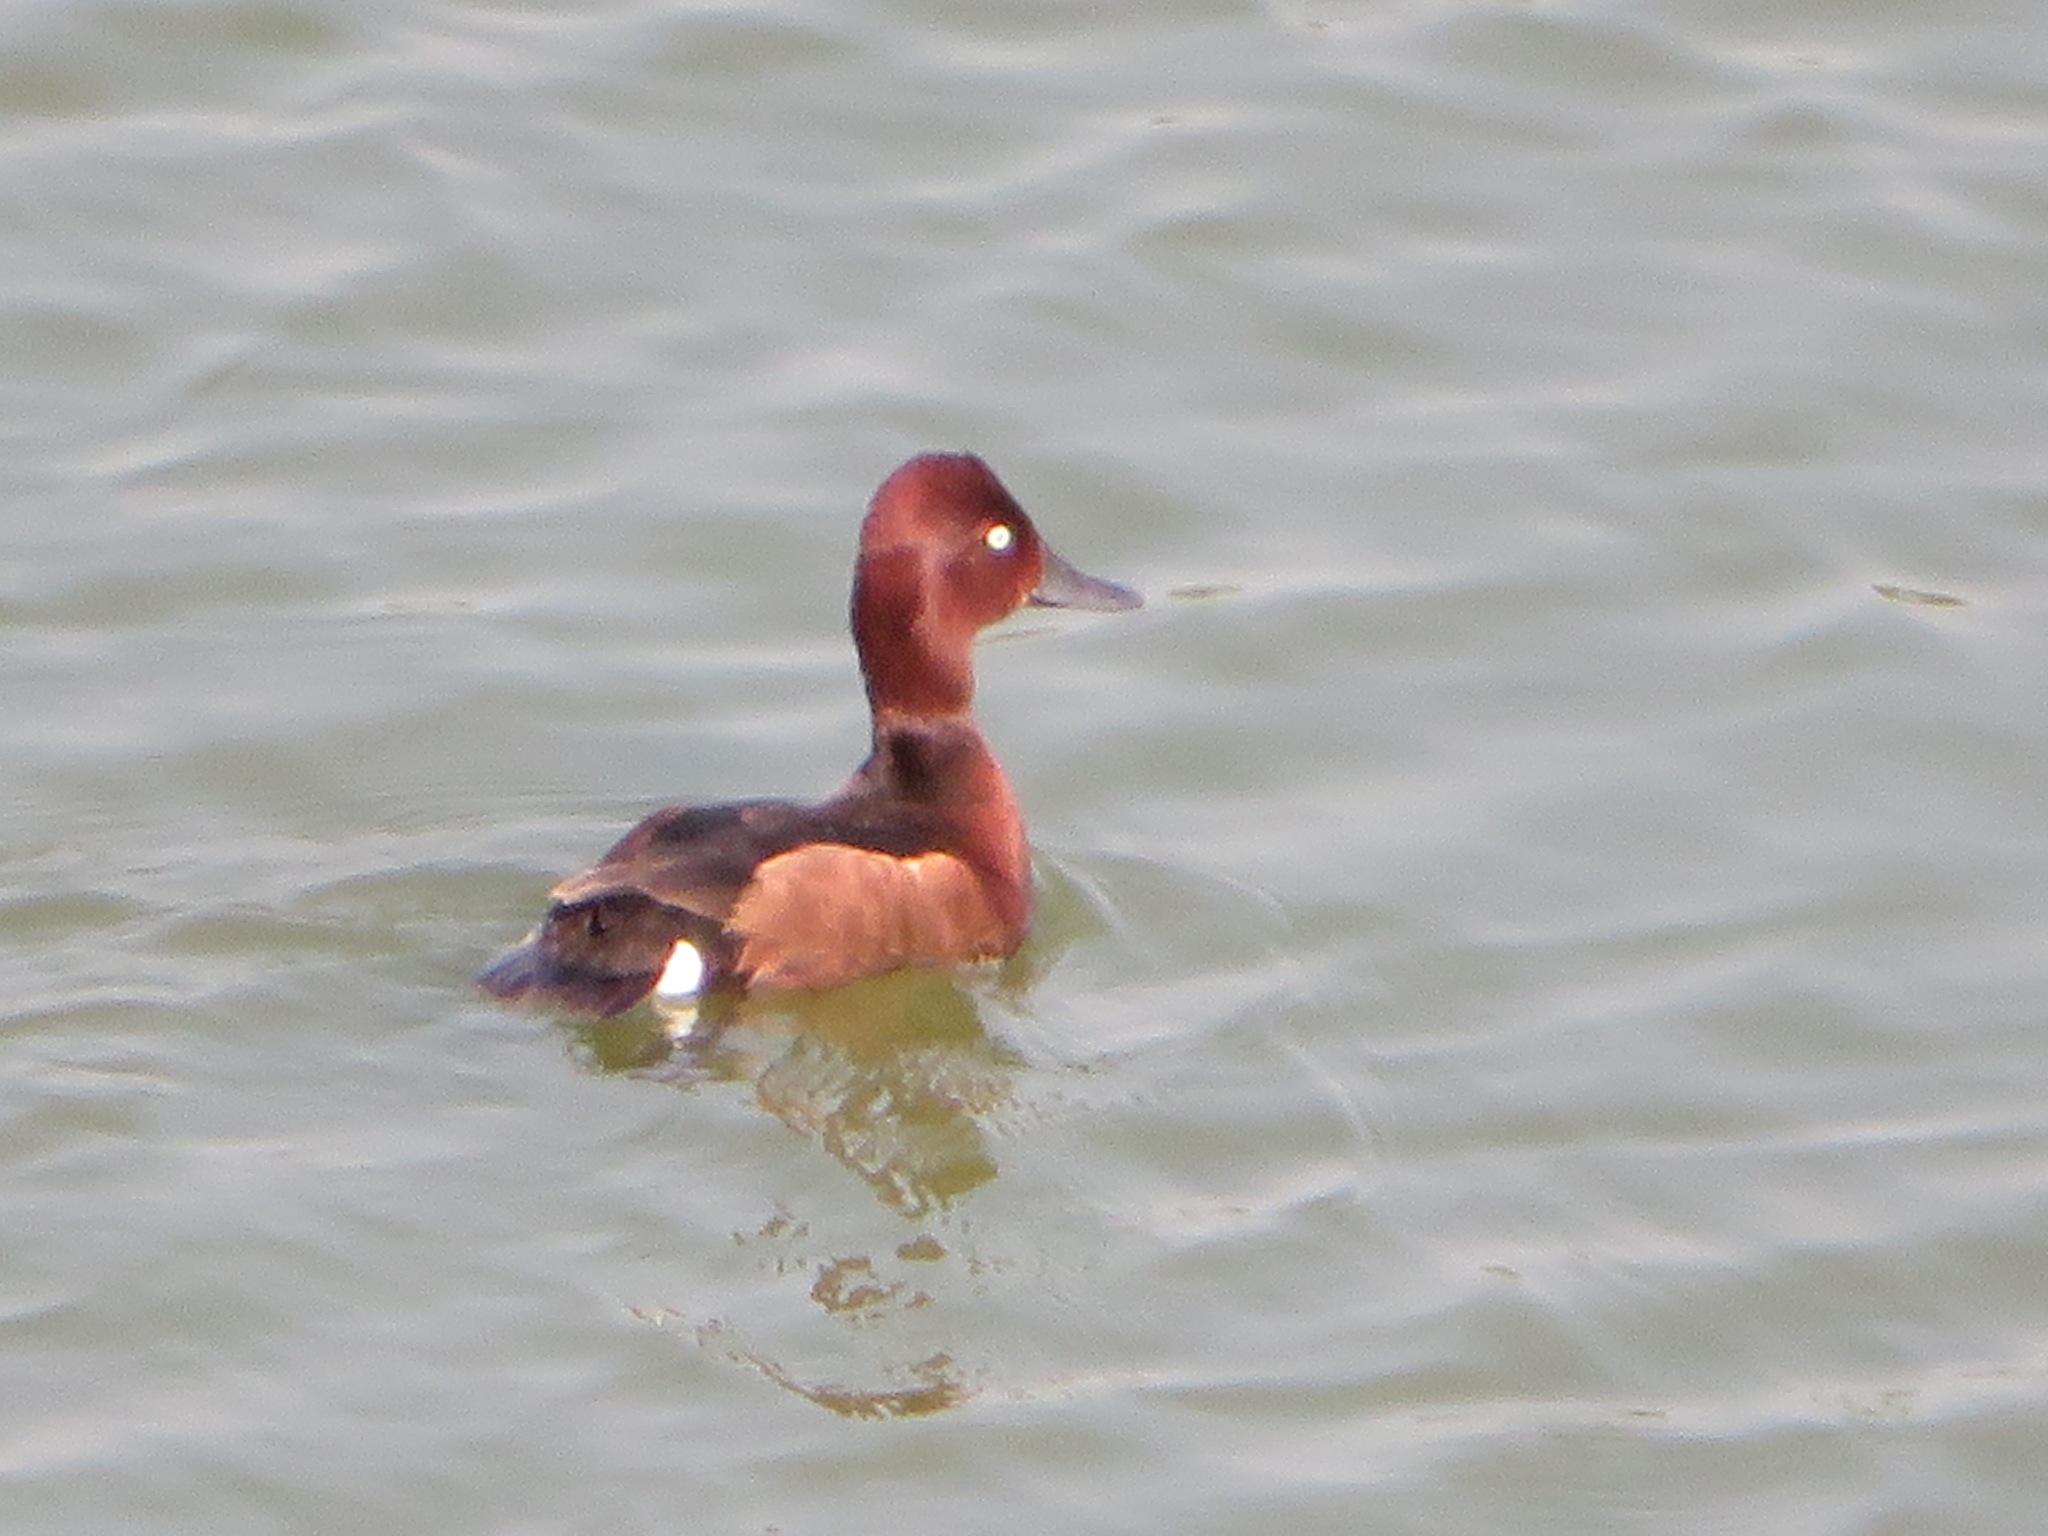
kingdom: Animalia
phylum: Chordata
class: Aves
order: Anseriformes
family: Anatidae
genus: Aythya
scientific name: Aythya nyroca
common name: Ferruginous duck
